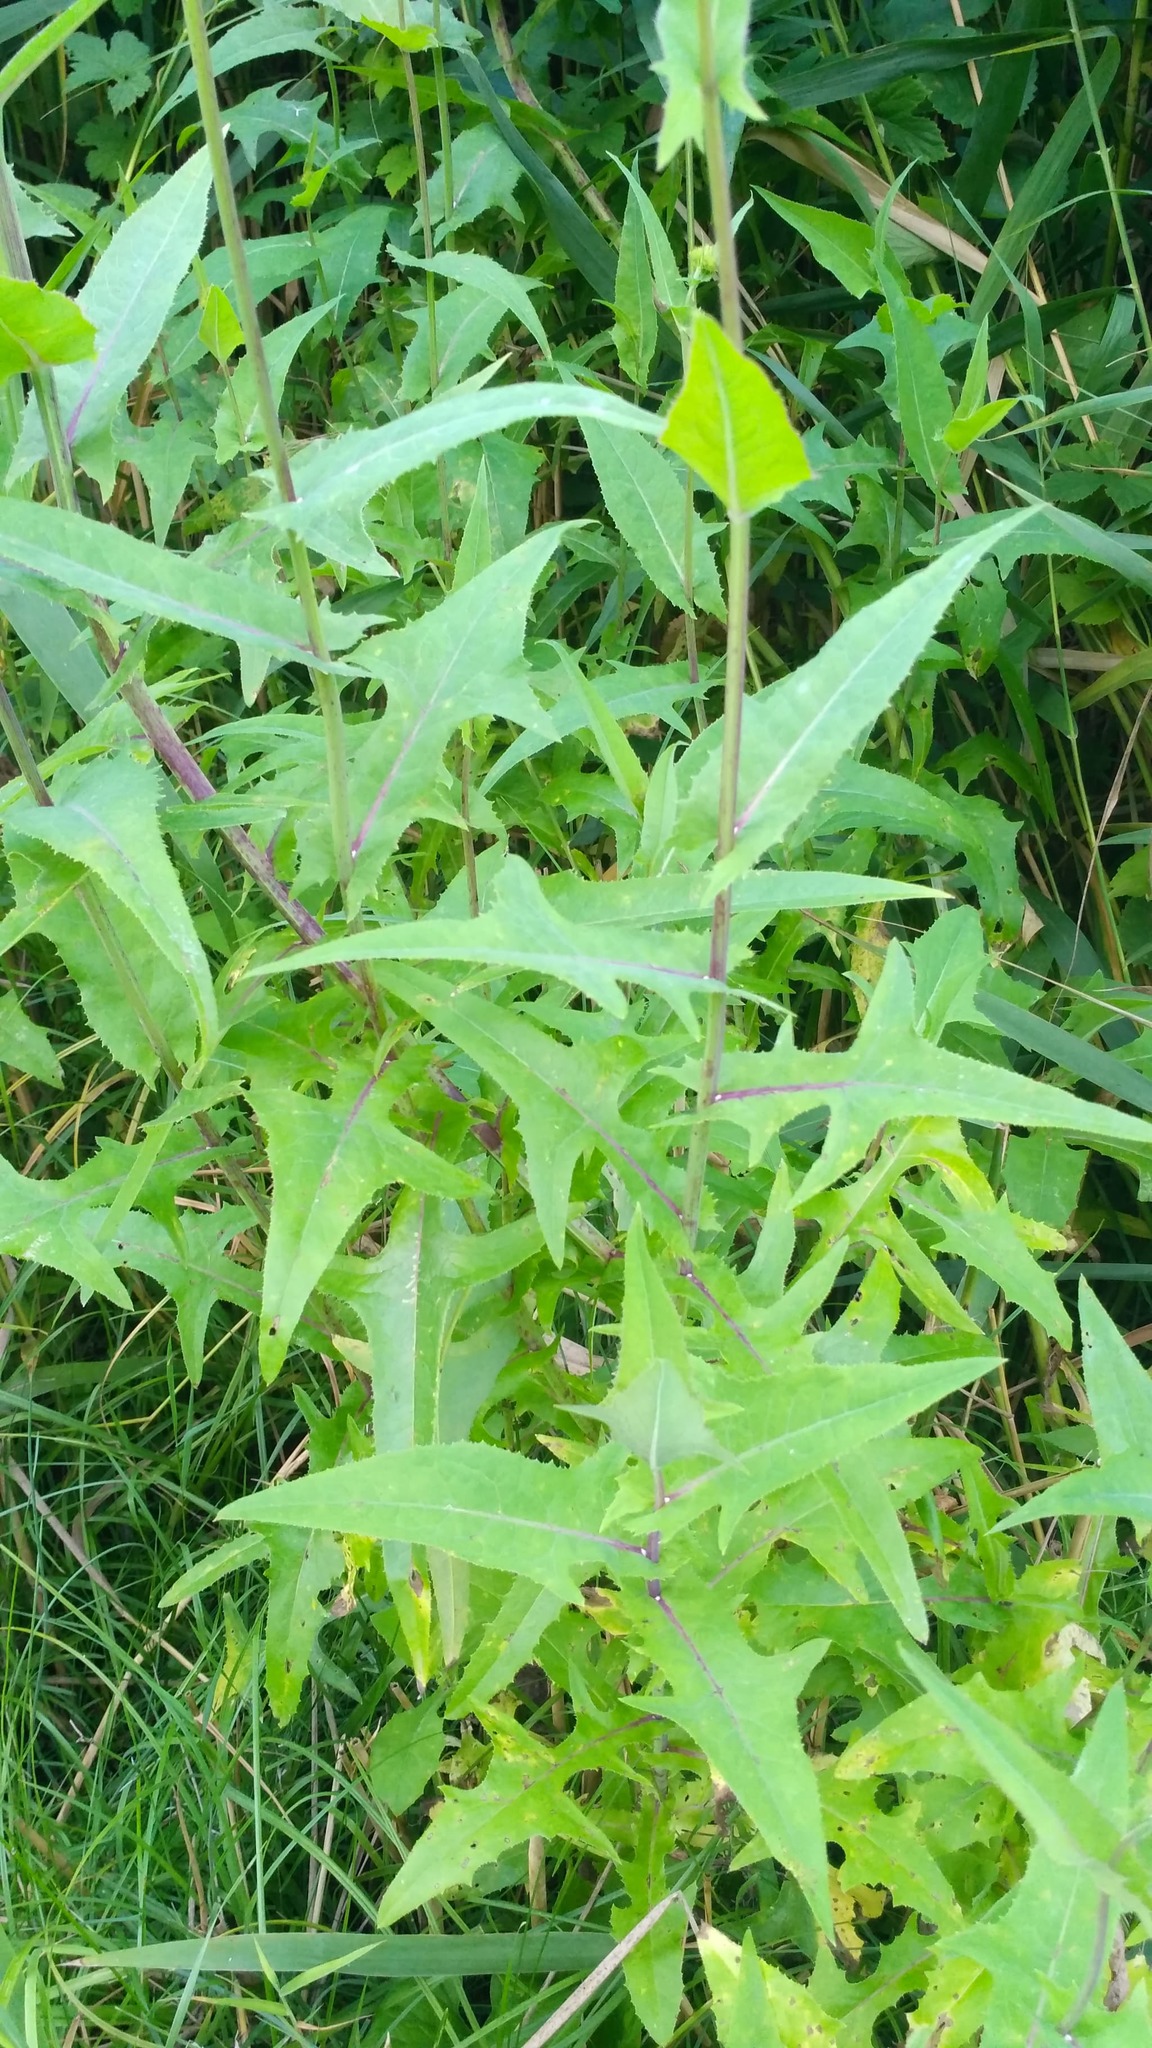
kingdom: Plantae
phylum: Tracheophyta
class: Magnoliopsida
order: Asterales
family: Asteraceae
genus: Sonchus
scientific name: Sonchus palustris
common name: Marsh sow-thistle
